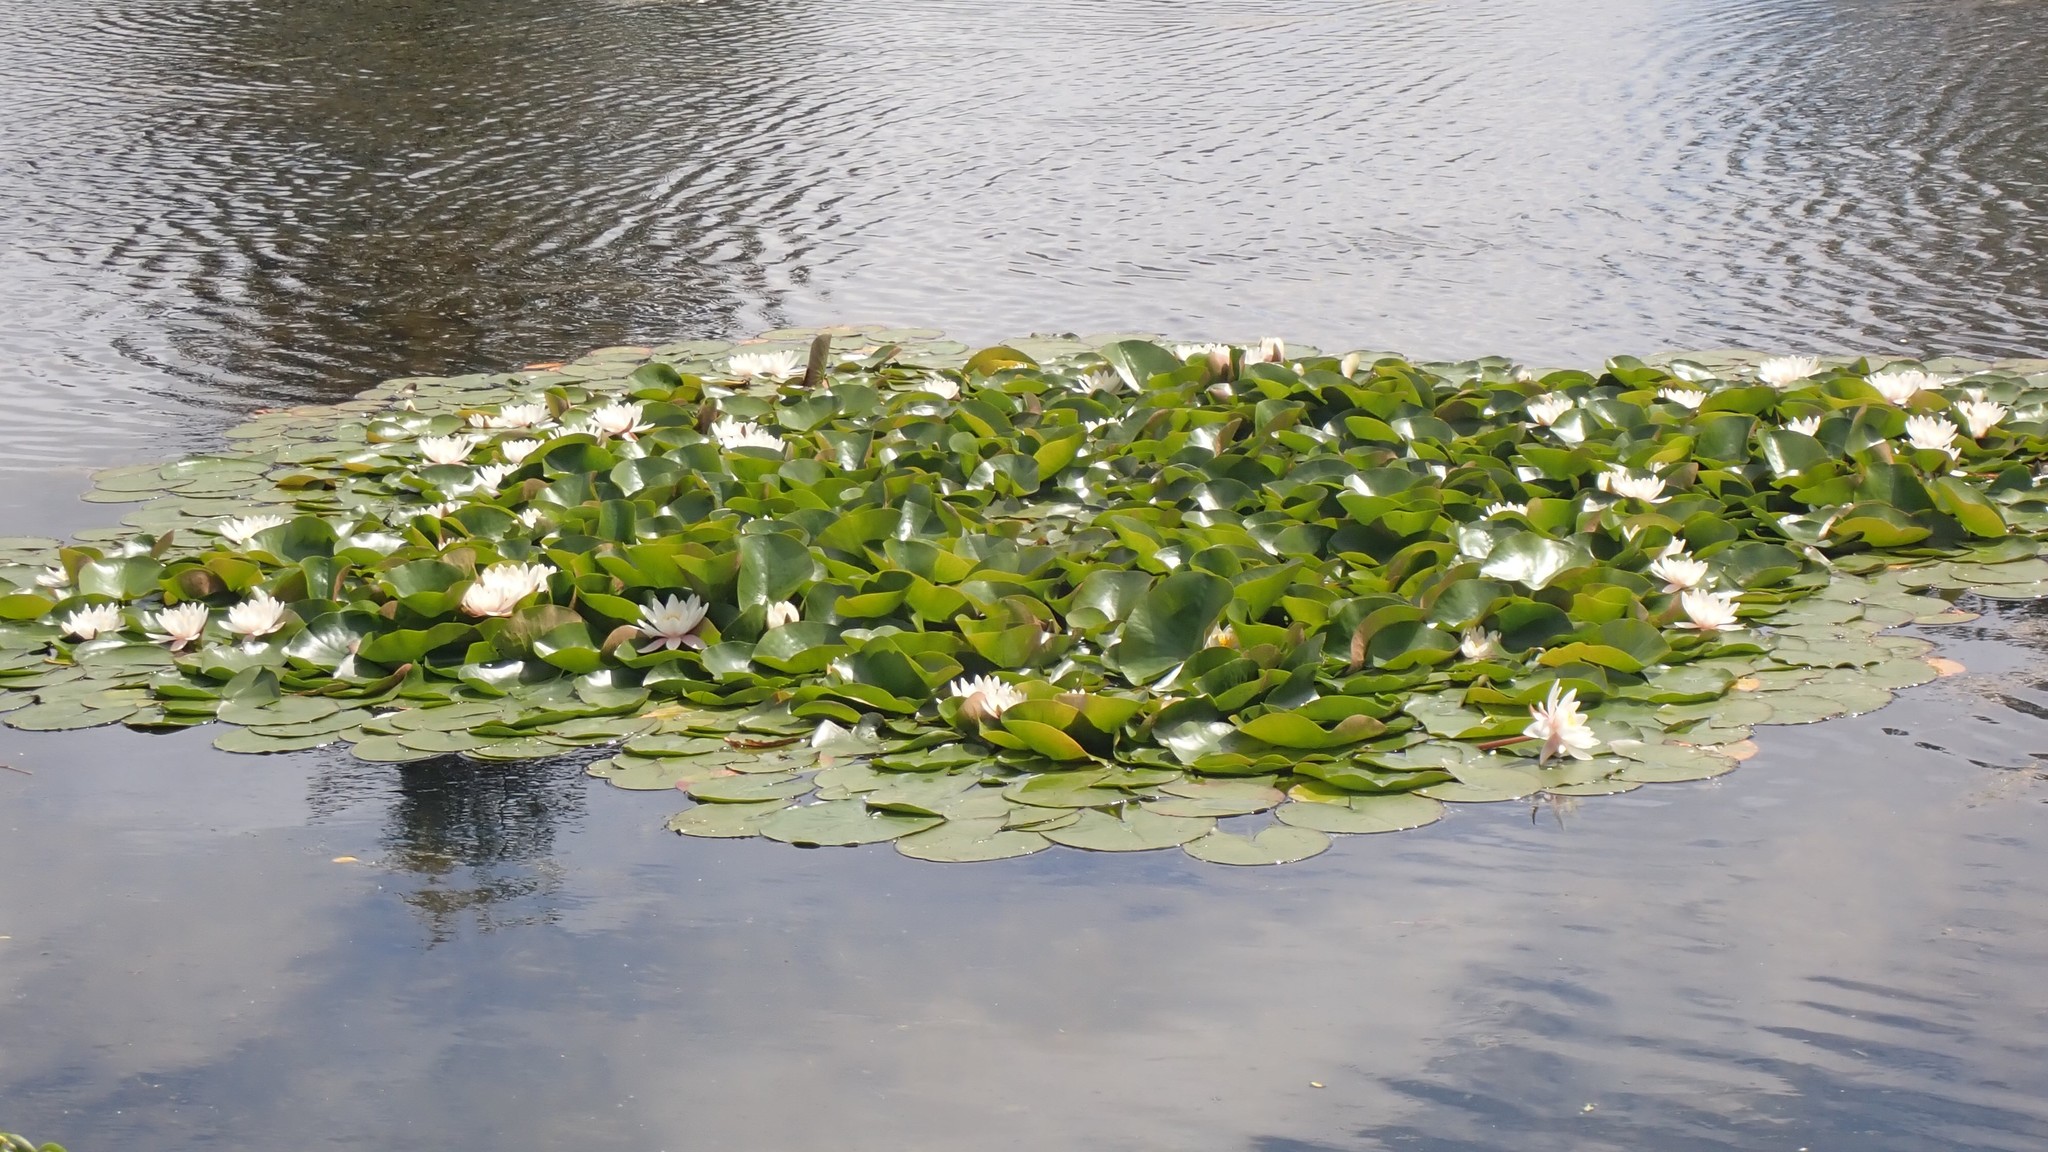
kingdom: Plantae
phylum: Tracheophyta
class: Magnoliopsida
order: Nymphaeales
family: Nymphaeaceae
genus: Nymphaea
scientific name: Nymphaea odorata
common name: Fragrant water-lily
